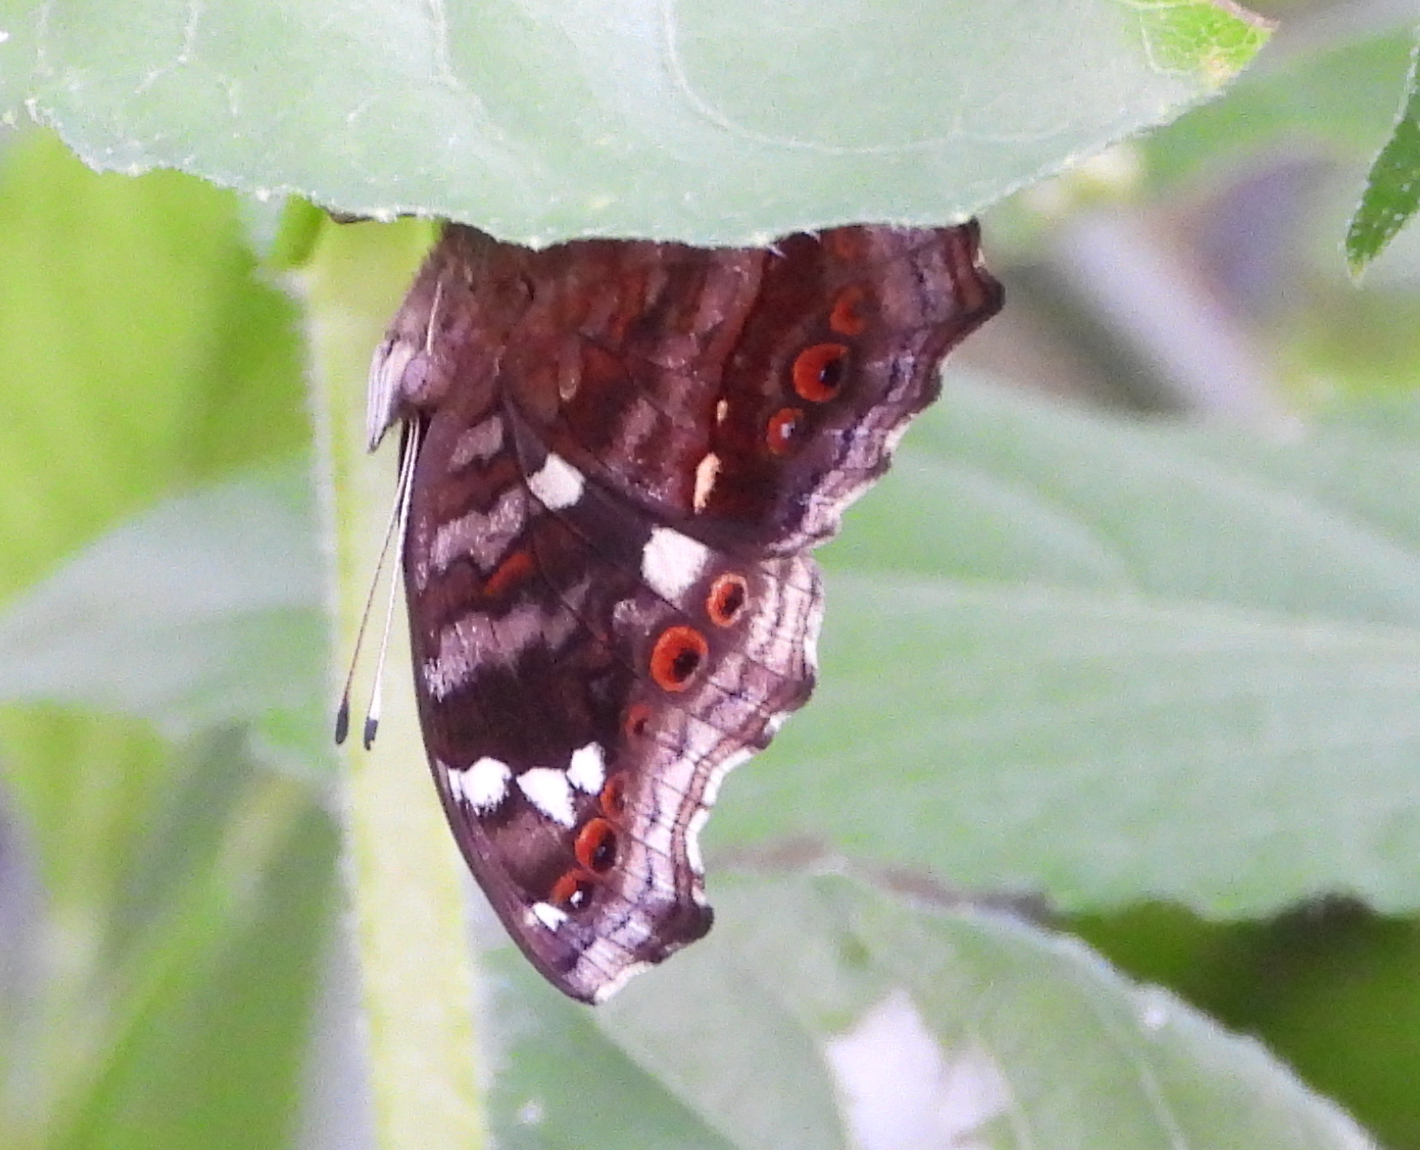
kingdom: Animalia
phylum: Arthropoda
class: Insecta
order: Lepidoptera
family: Nymphalidae
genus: Junonia
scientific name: Junonia natalica
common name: Brown pansy
